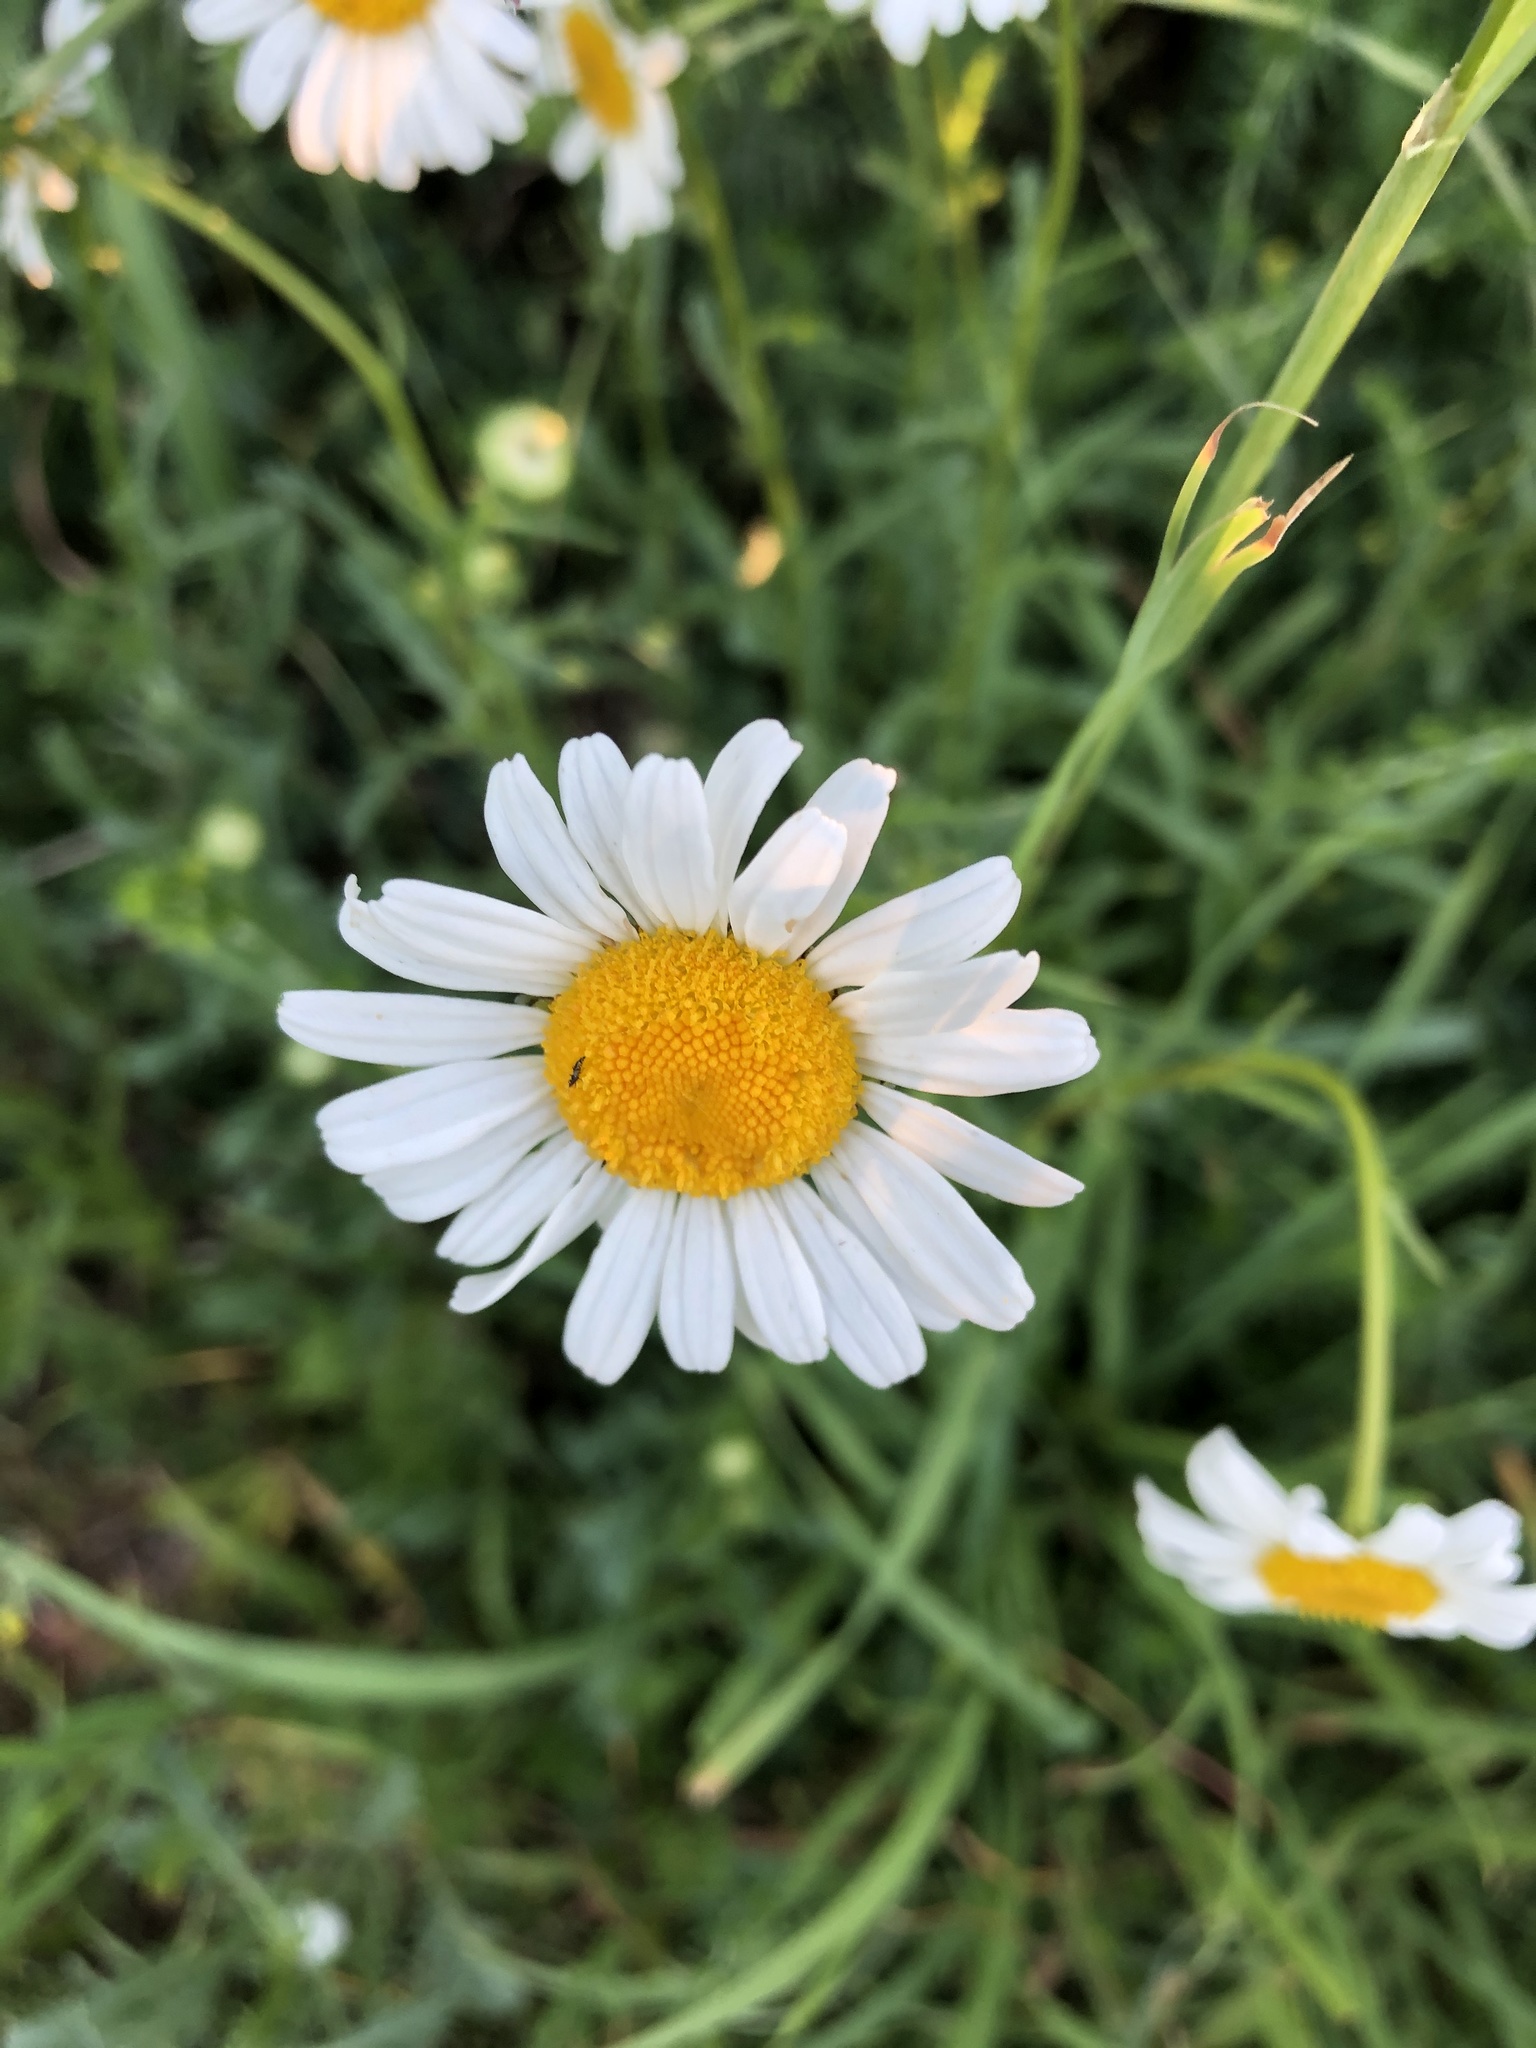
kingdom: Plantae
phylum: Tracheophyta
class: Magnoliopsida
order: Asterales
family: Asteraceae
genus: Leucanthemum
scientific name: Leucanthemum vulgare
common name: Oxeye daisy
